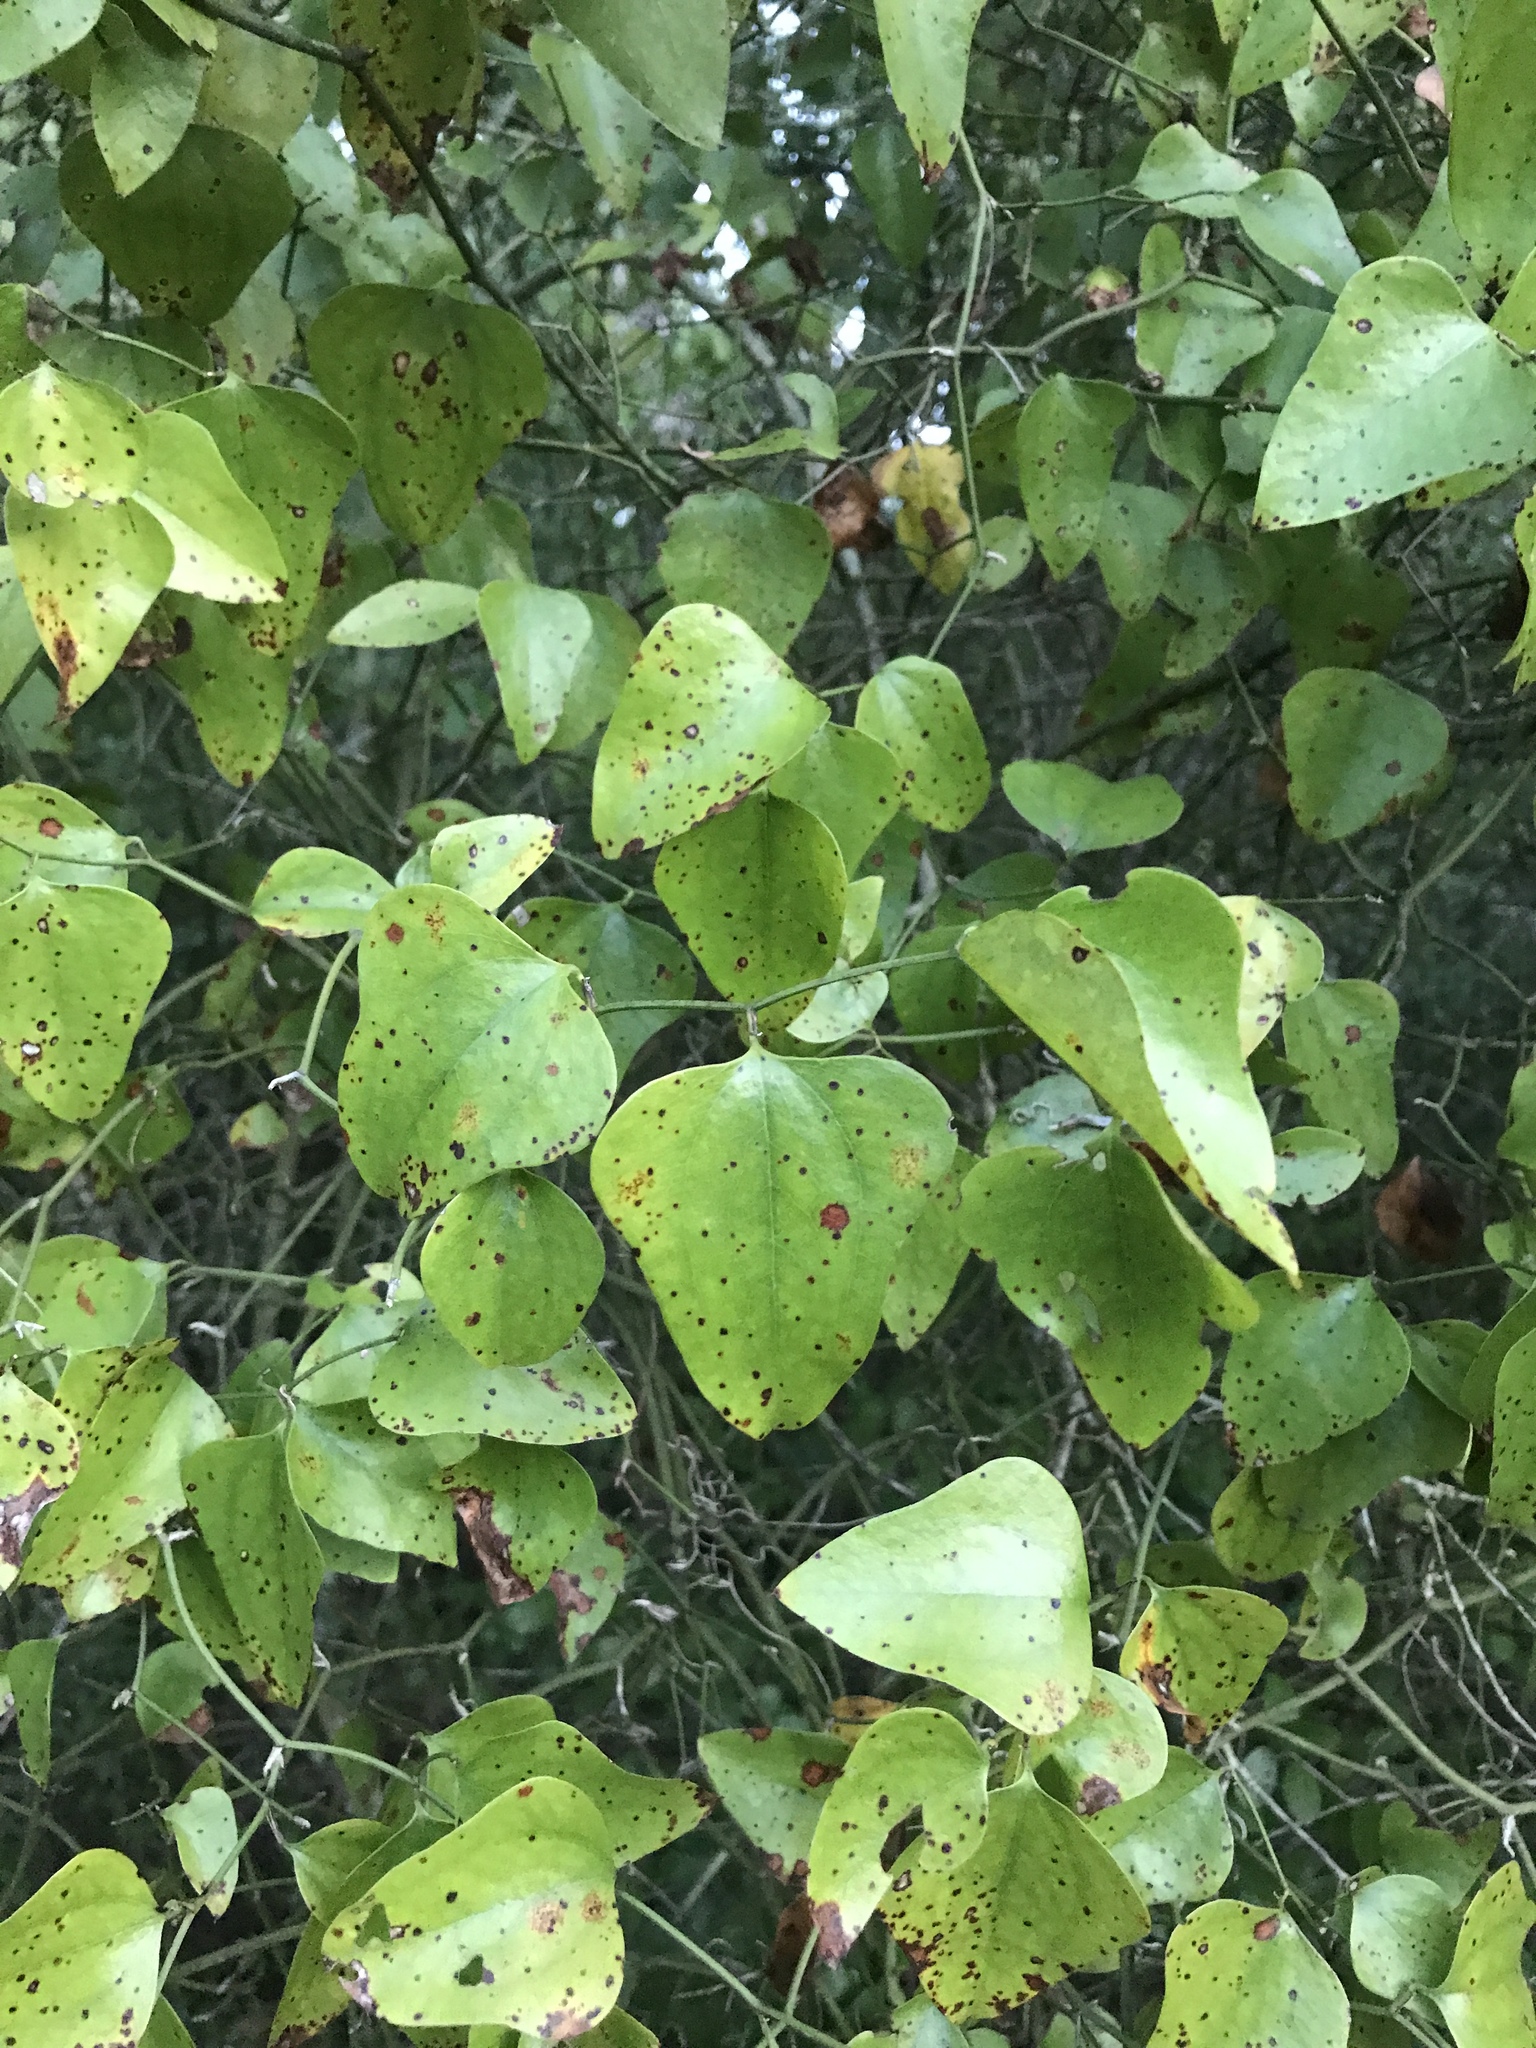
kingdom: Plantae
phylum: Tracheophyta
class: Liliopsida
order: Liliales
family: Smilacaceae
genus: Smilax
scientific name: Smilax bona-nox
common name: Catbrier
